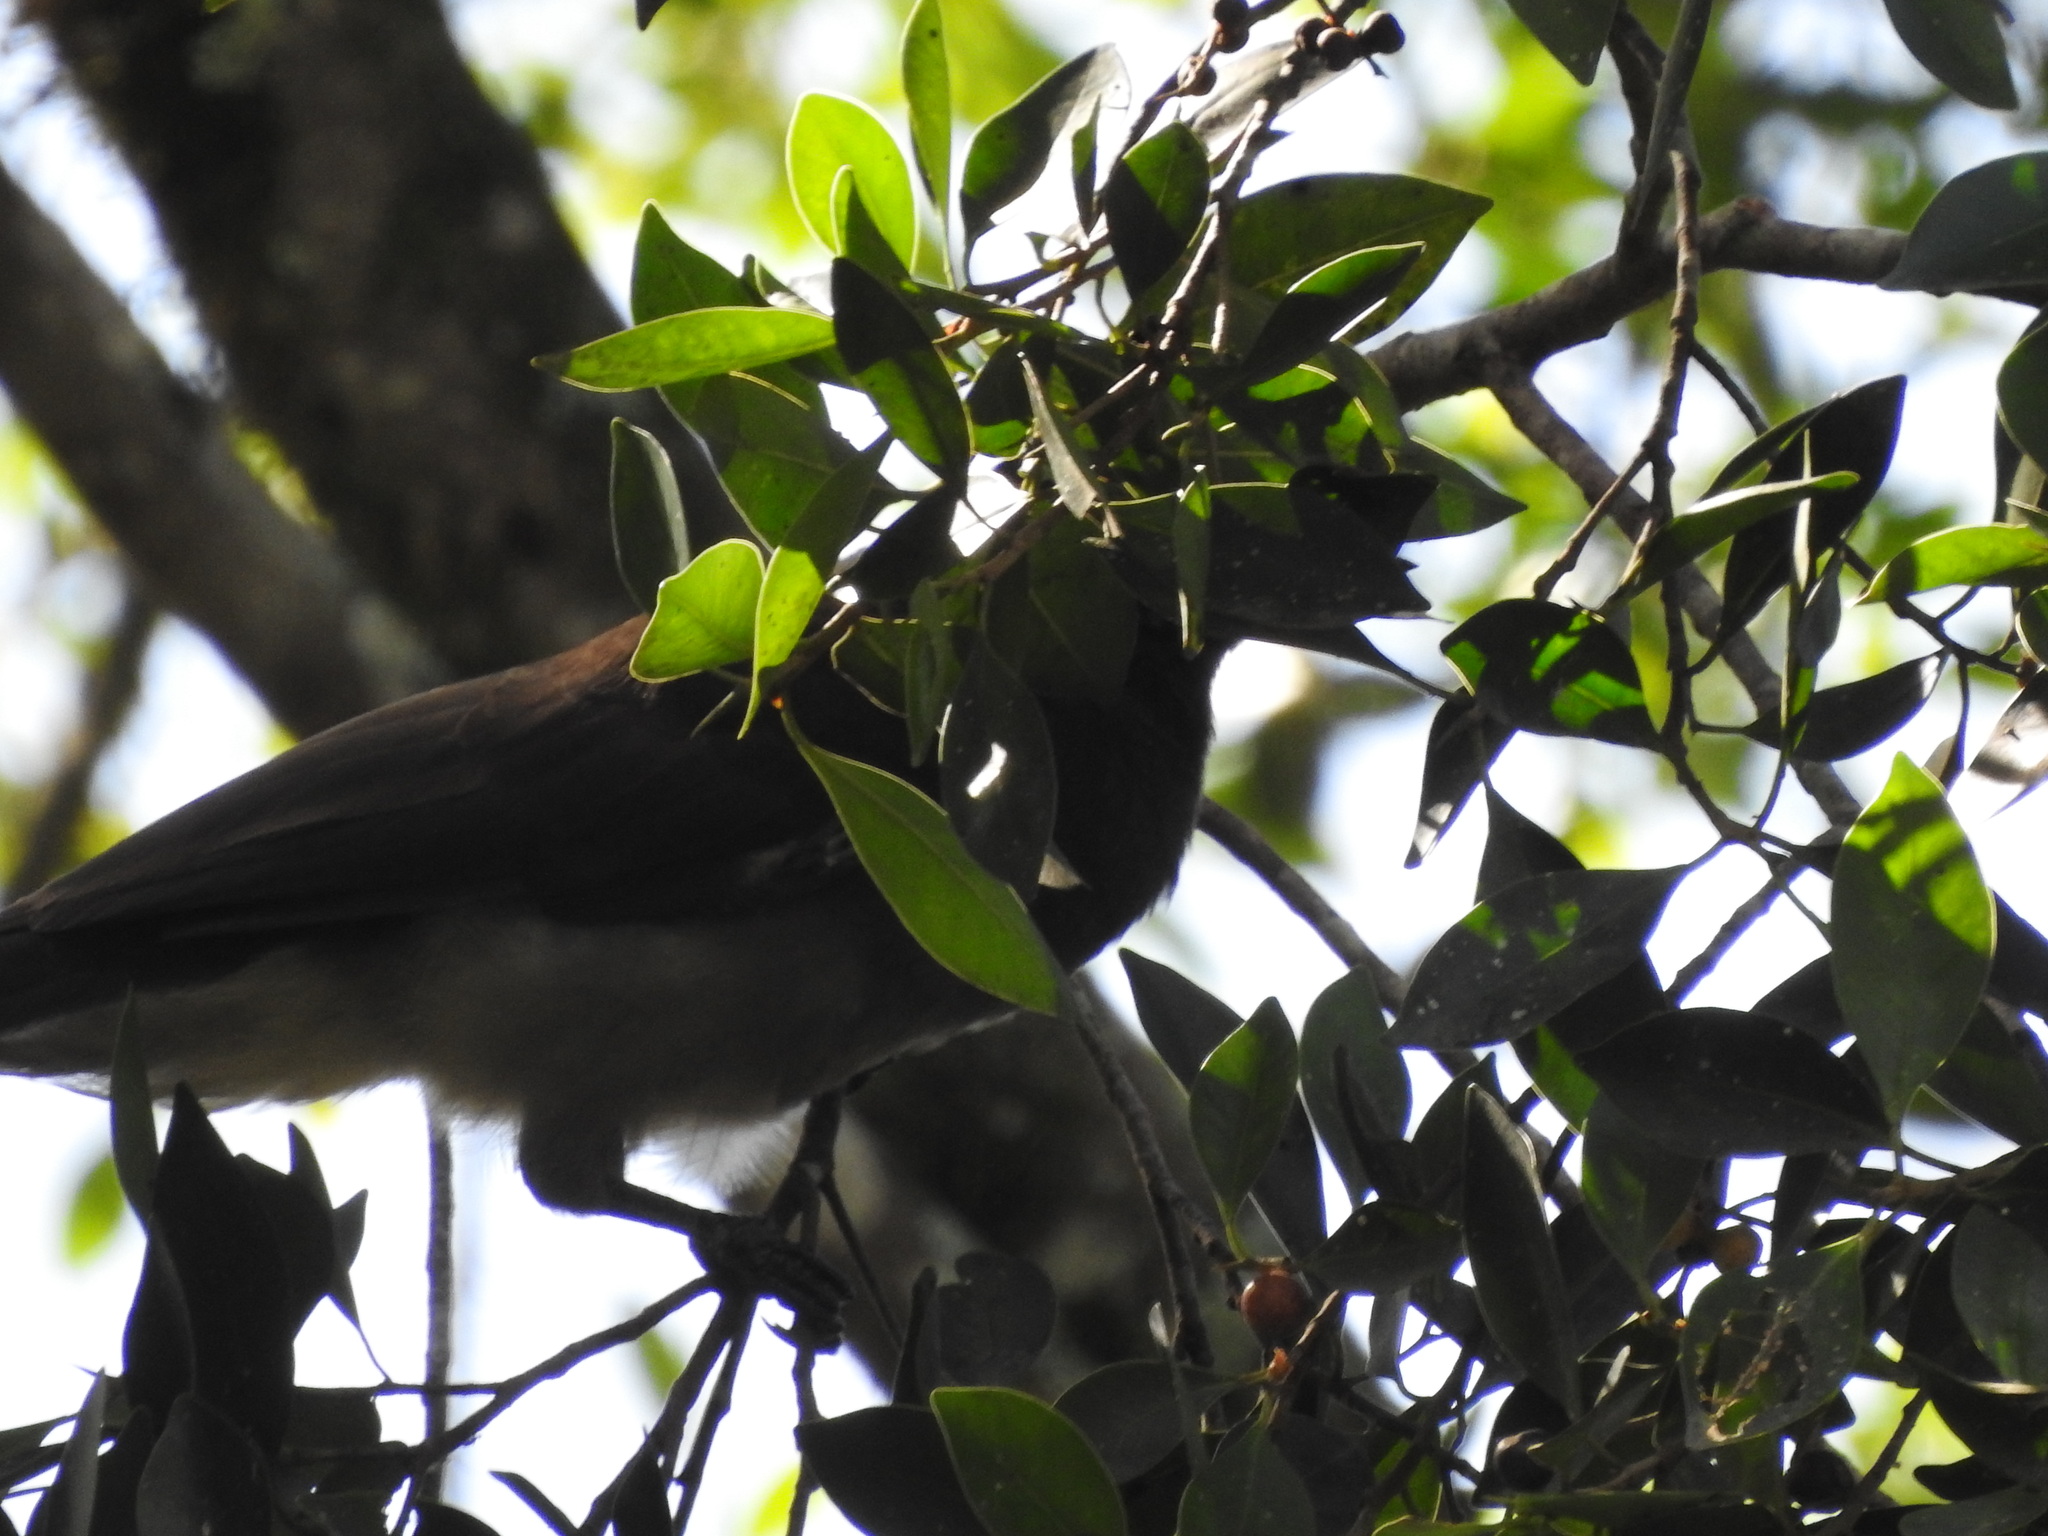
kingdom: Animalia
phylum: Chordata
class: Aves
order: Passeriformes
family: Corvidae
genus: Psilorhinus
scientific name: Psilorhinus morio
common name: Brown jay
